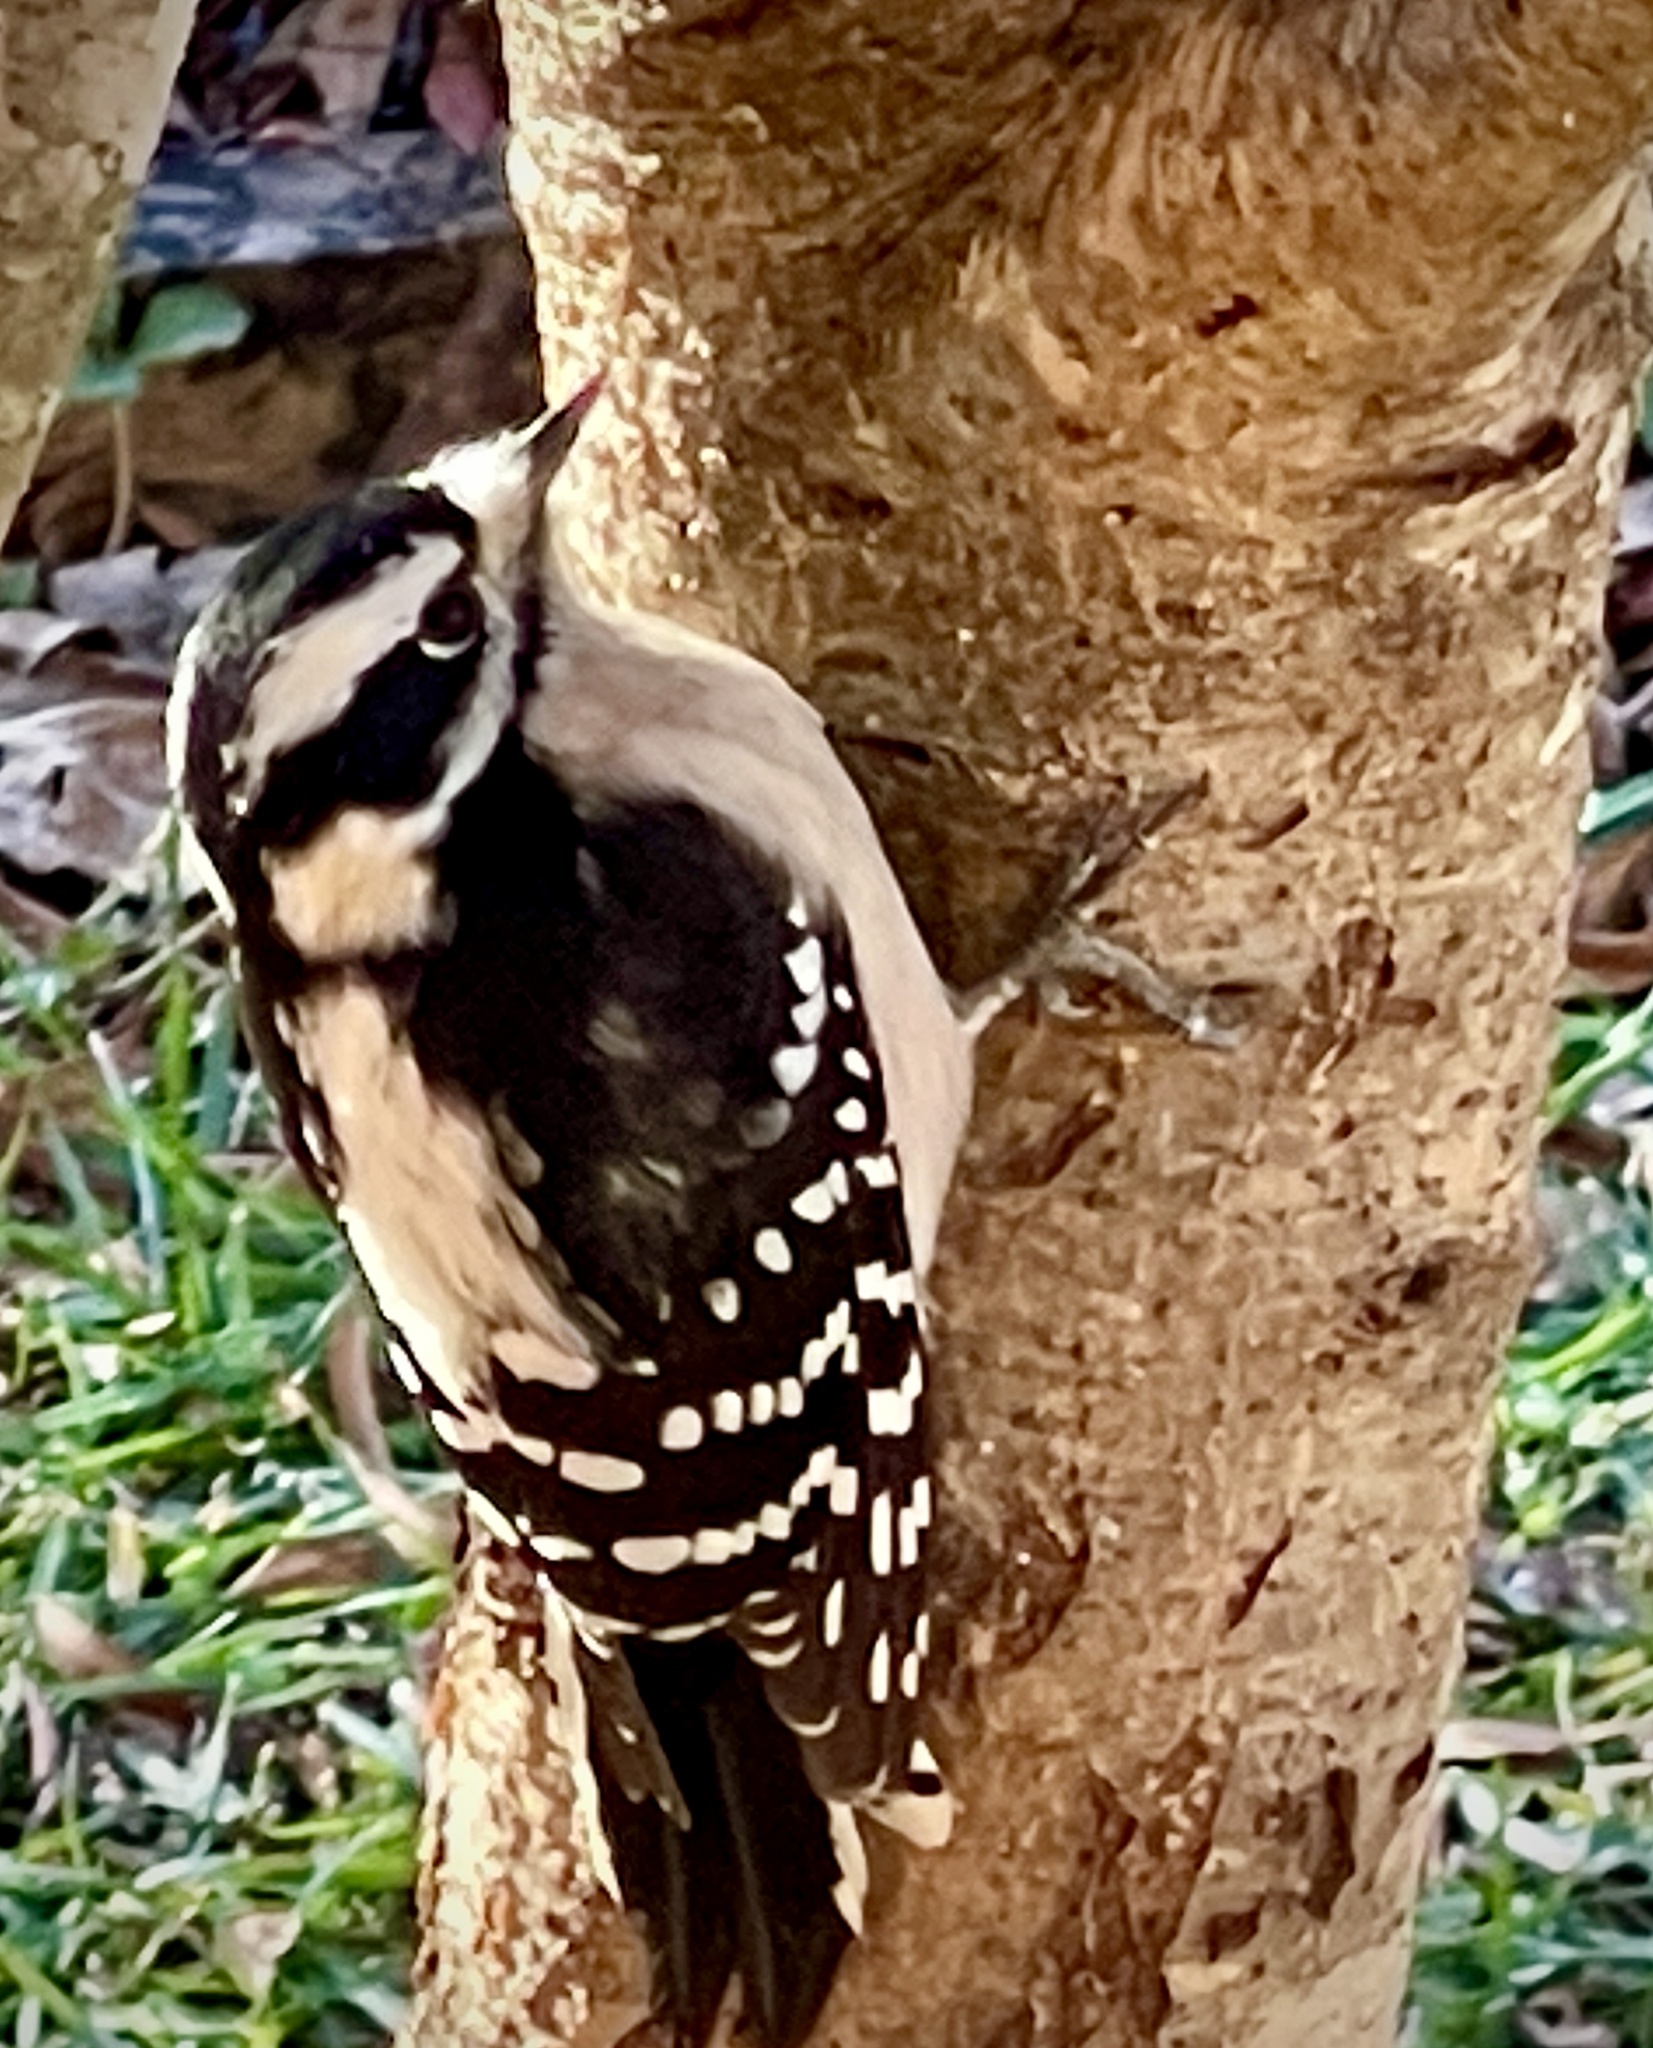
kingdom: Animalia
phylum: Chordata
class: Aves
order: Piciformes
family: Picidae
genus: Dryobates
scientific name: Dryobates pubescens
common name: Downy woodpecker
